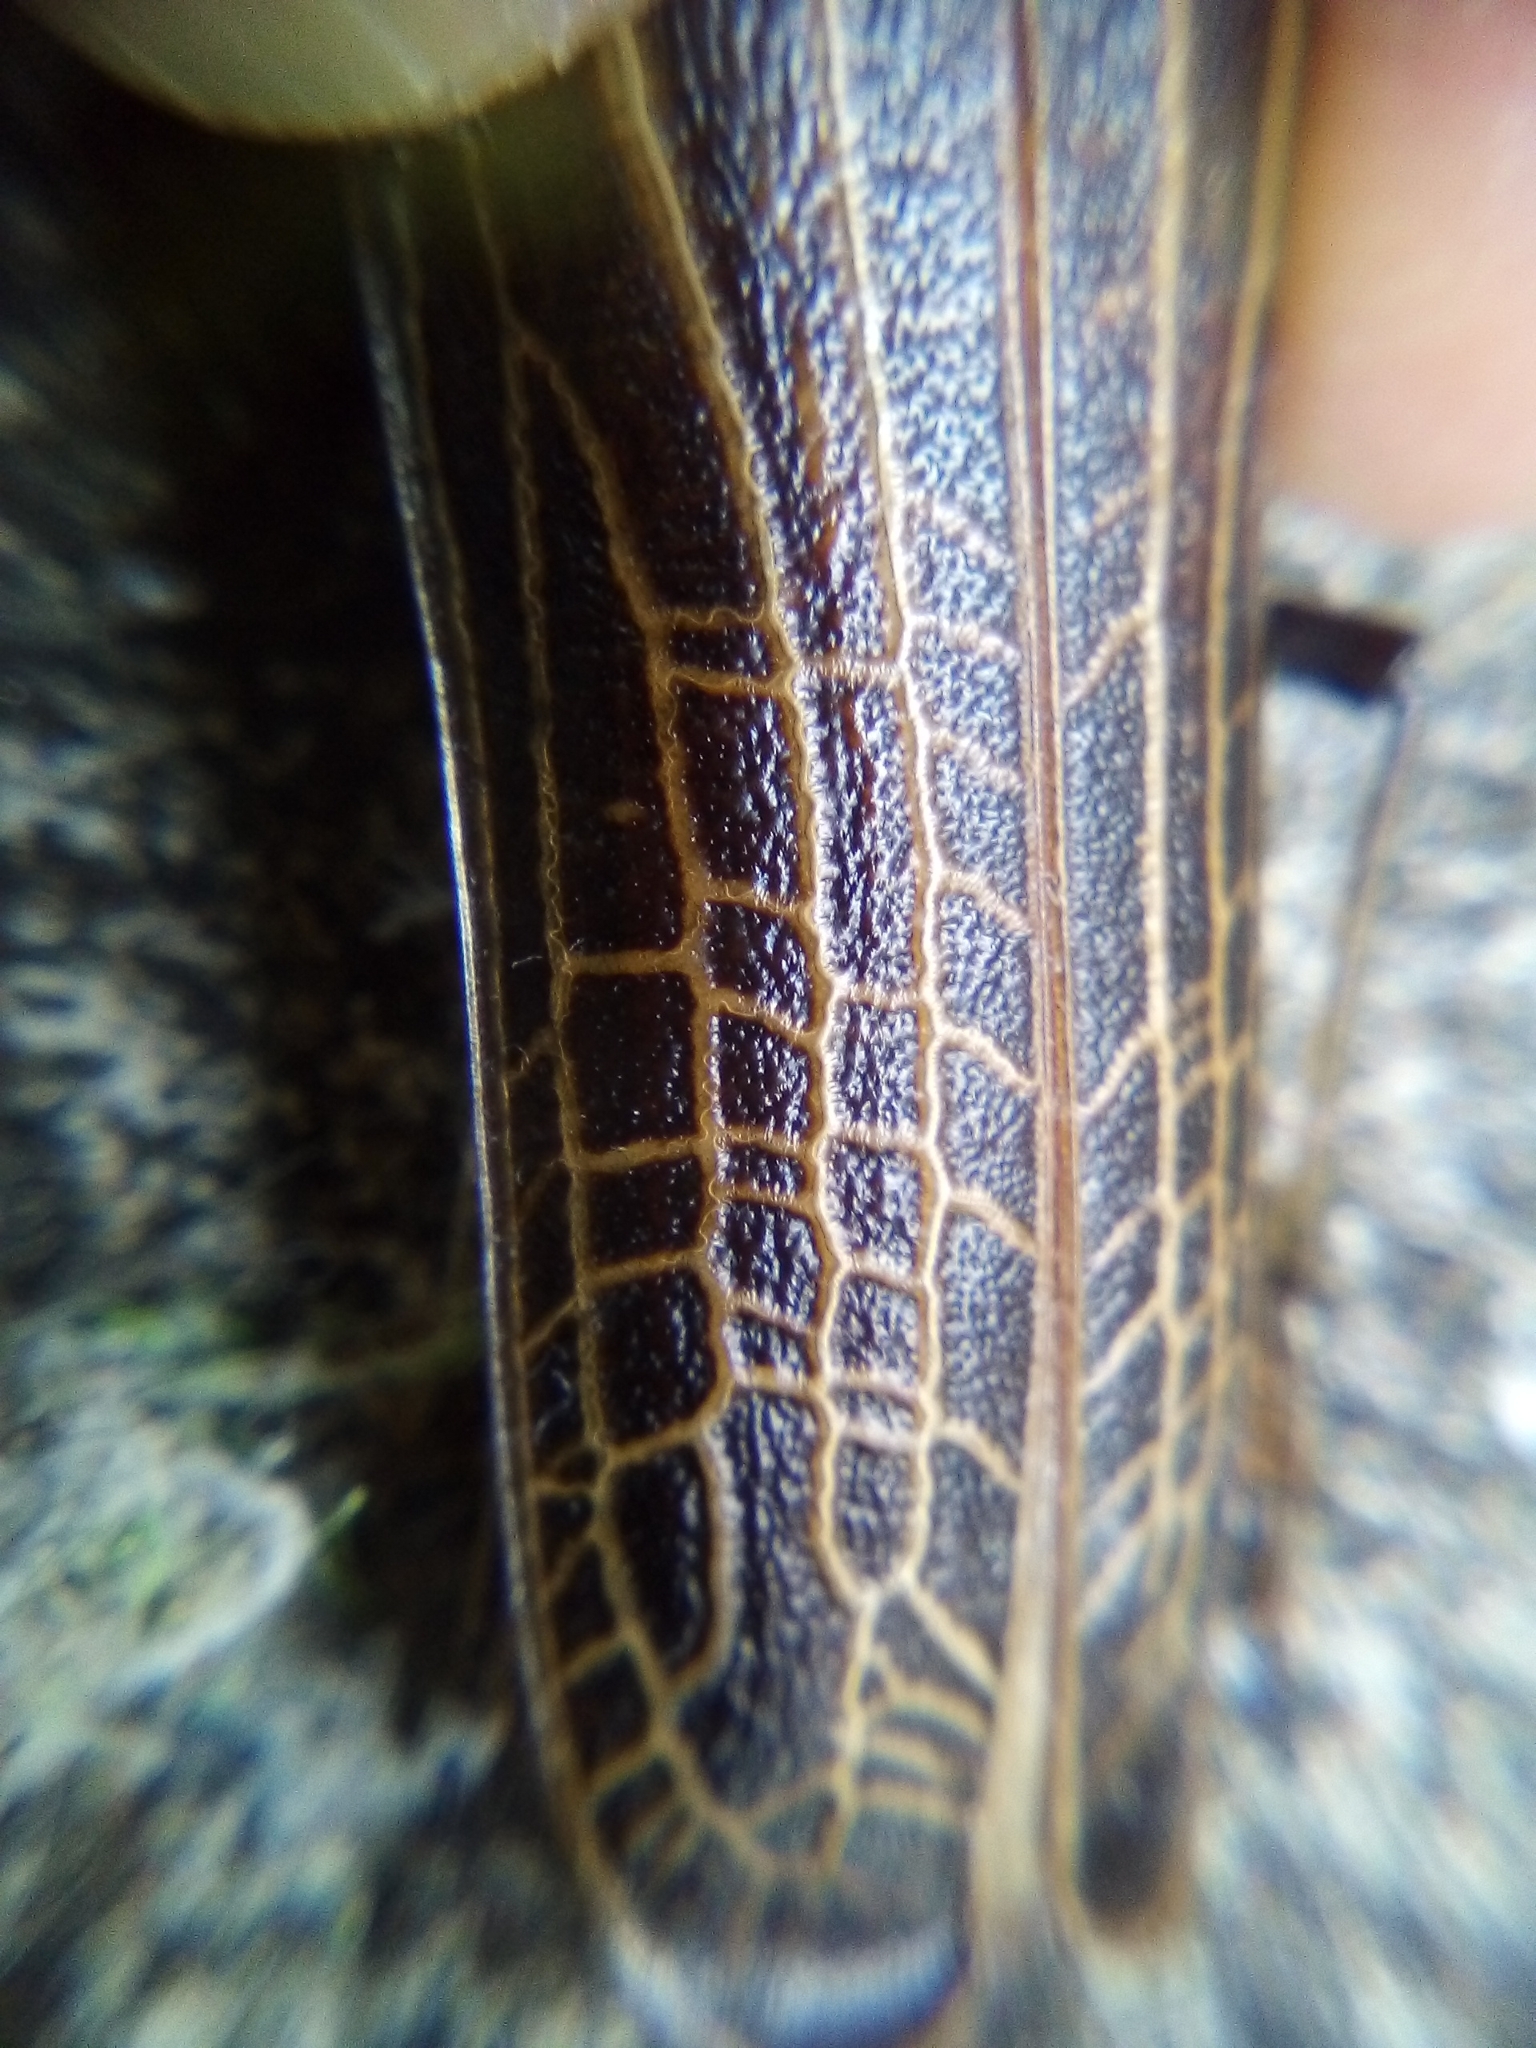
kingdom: Animalia
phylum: Arthropoda
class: Insecta
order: Coleoptera
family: Cerambycidae
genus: Prionoplus
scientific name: Prionoplus reticularis
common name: Huhu beetle
